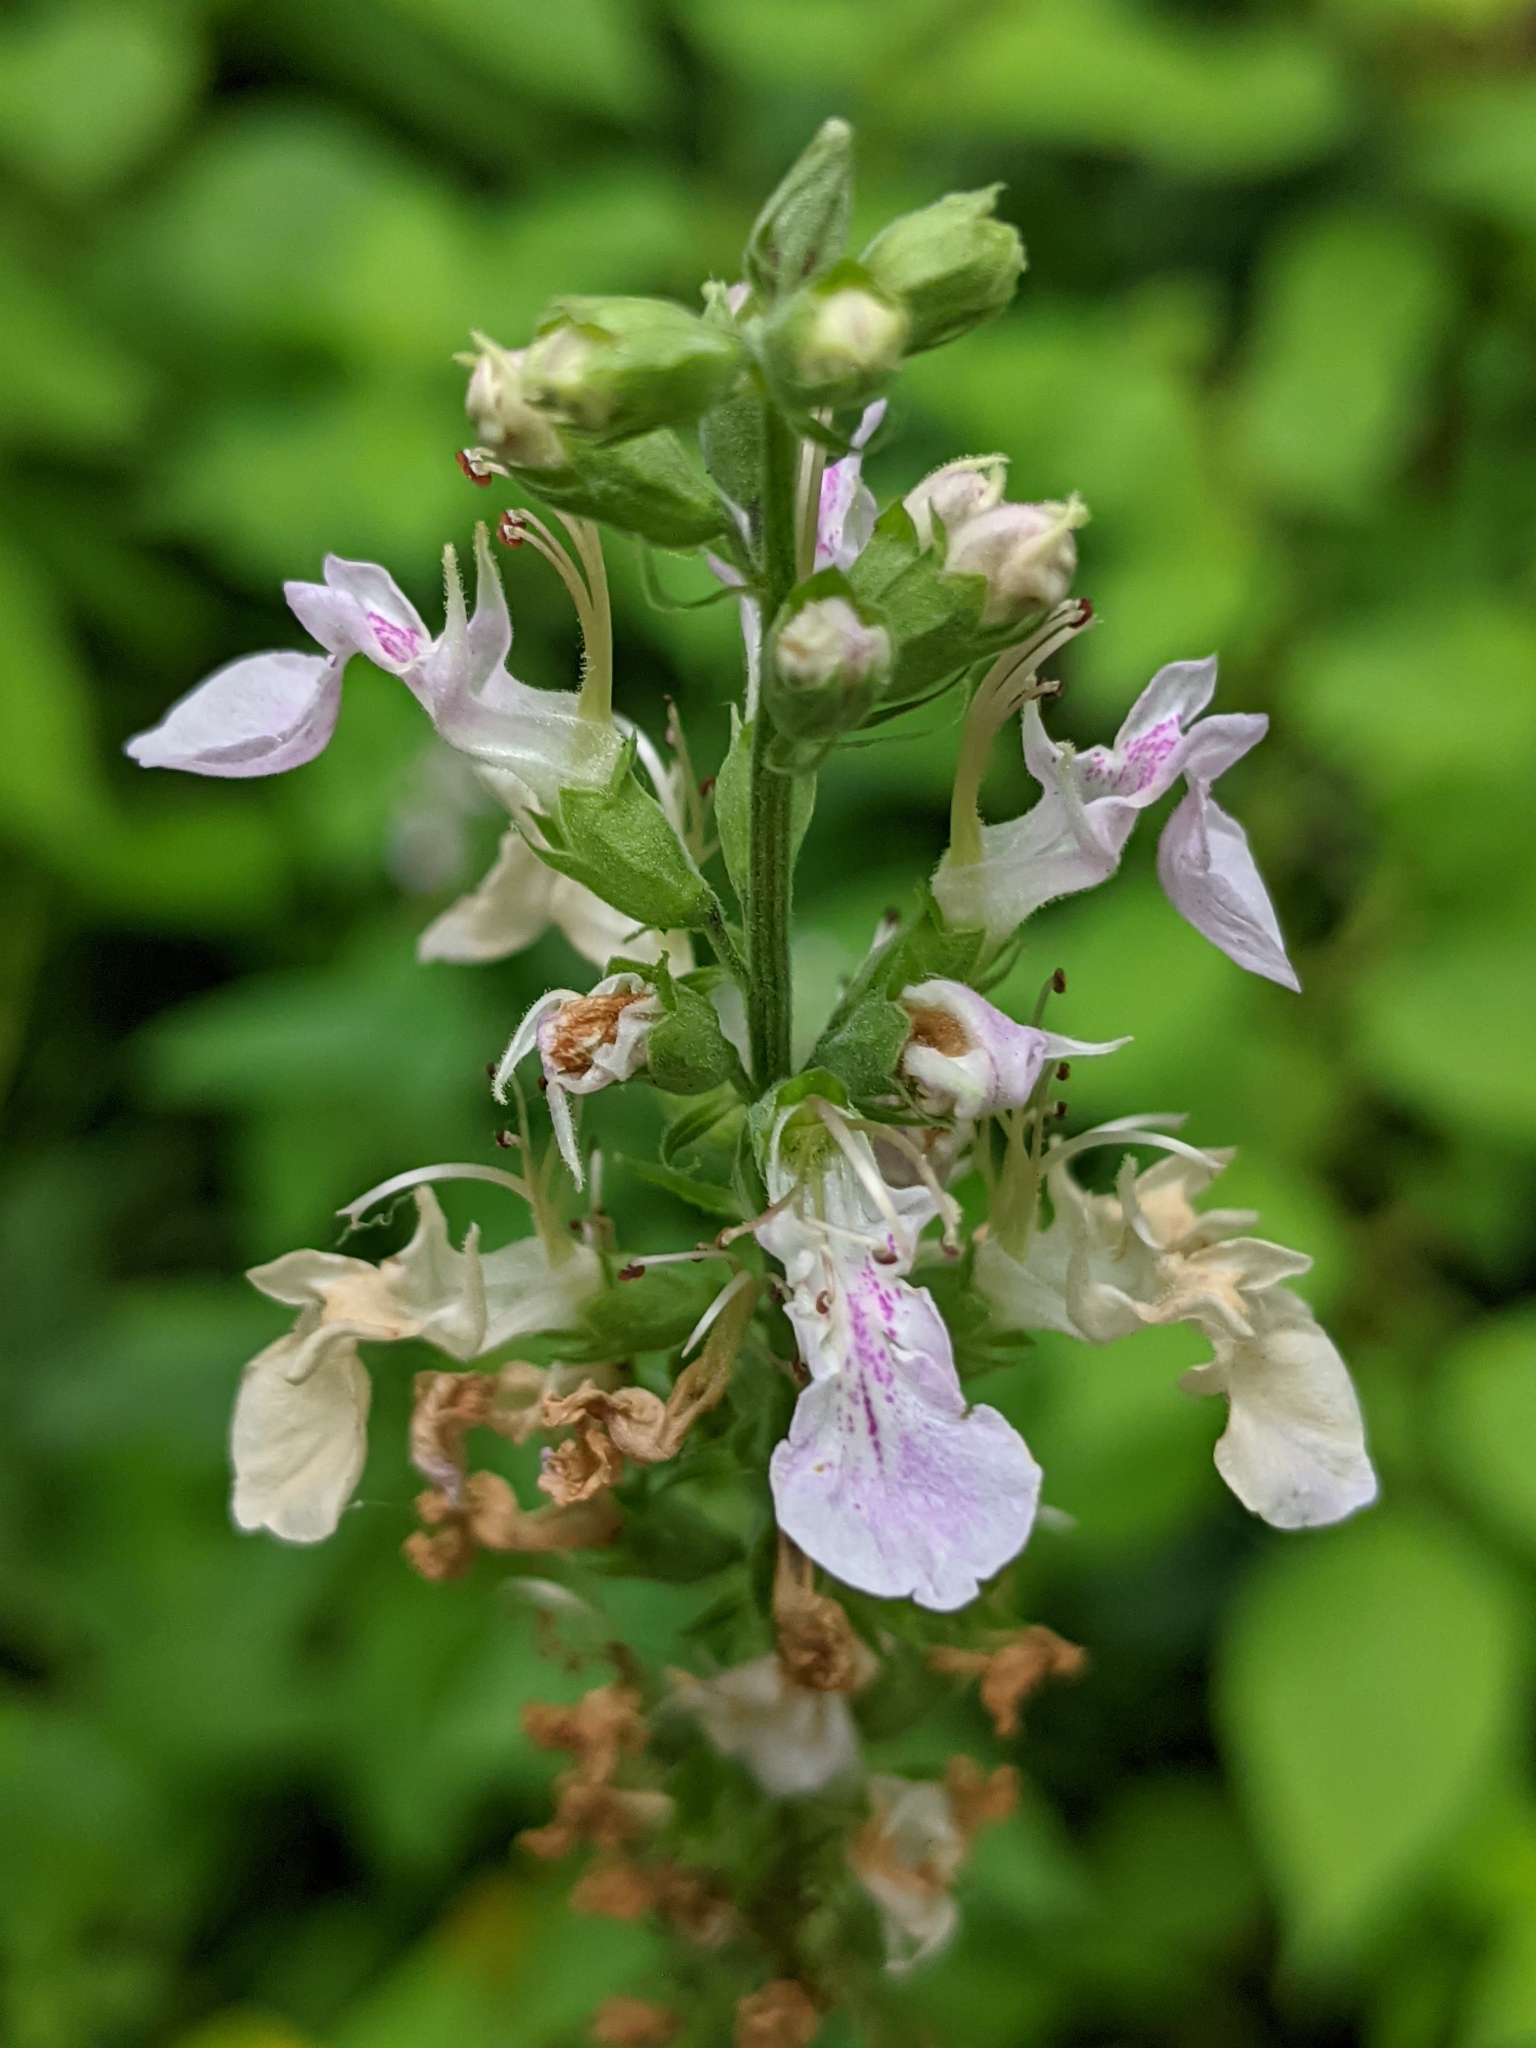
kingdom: Plantae
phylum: Tracheophyta
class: Magnoliopsida
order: Lamiales
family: Lamiaceae
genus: Teucrium
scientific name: Teucrium canadense
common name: American germander
